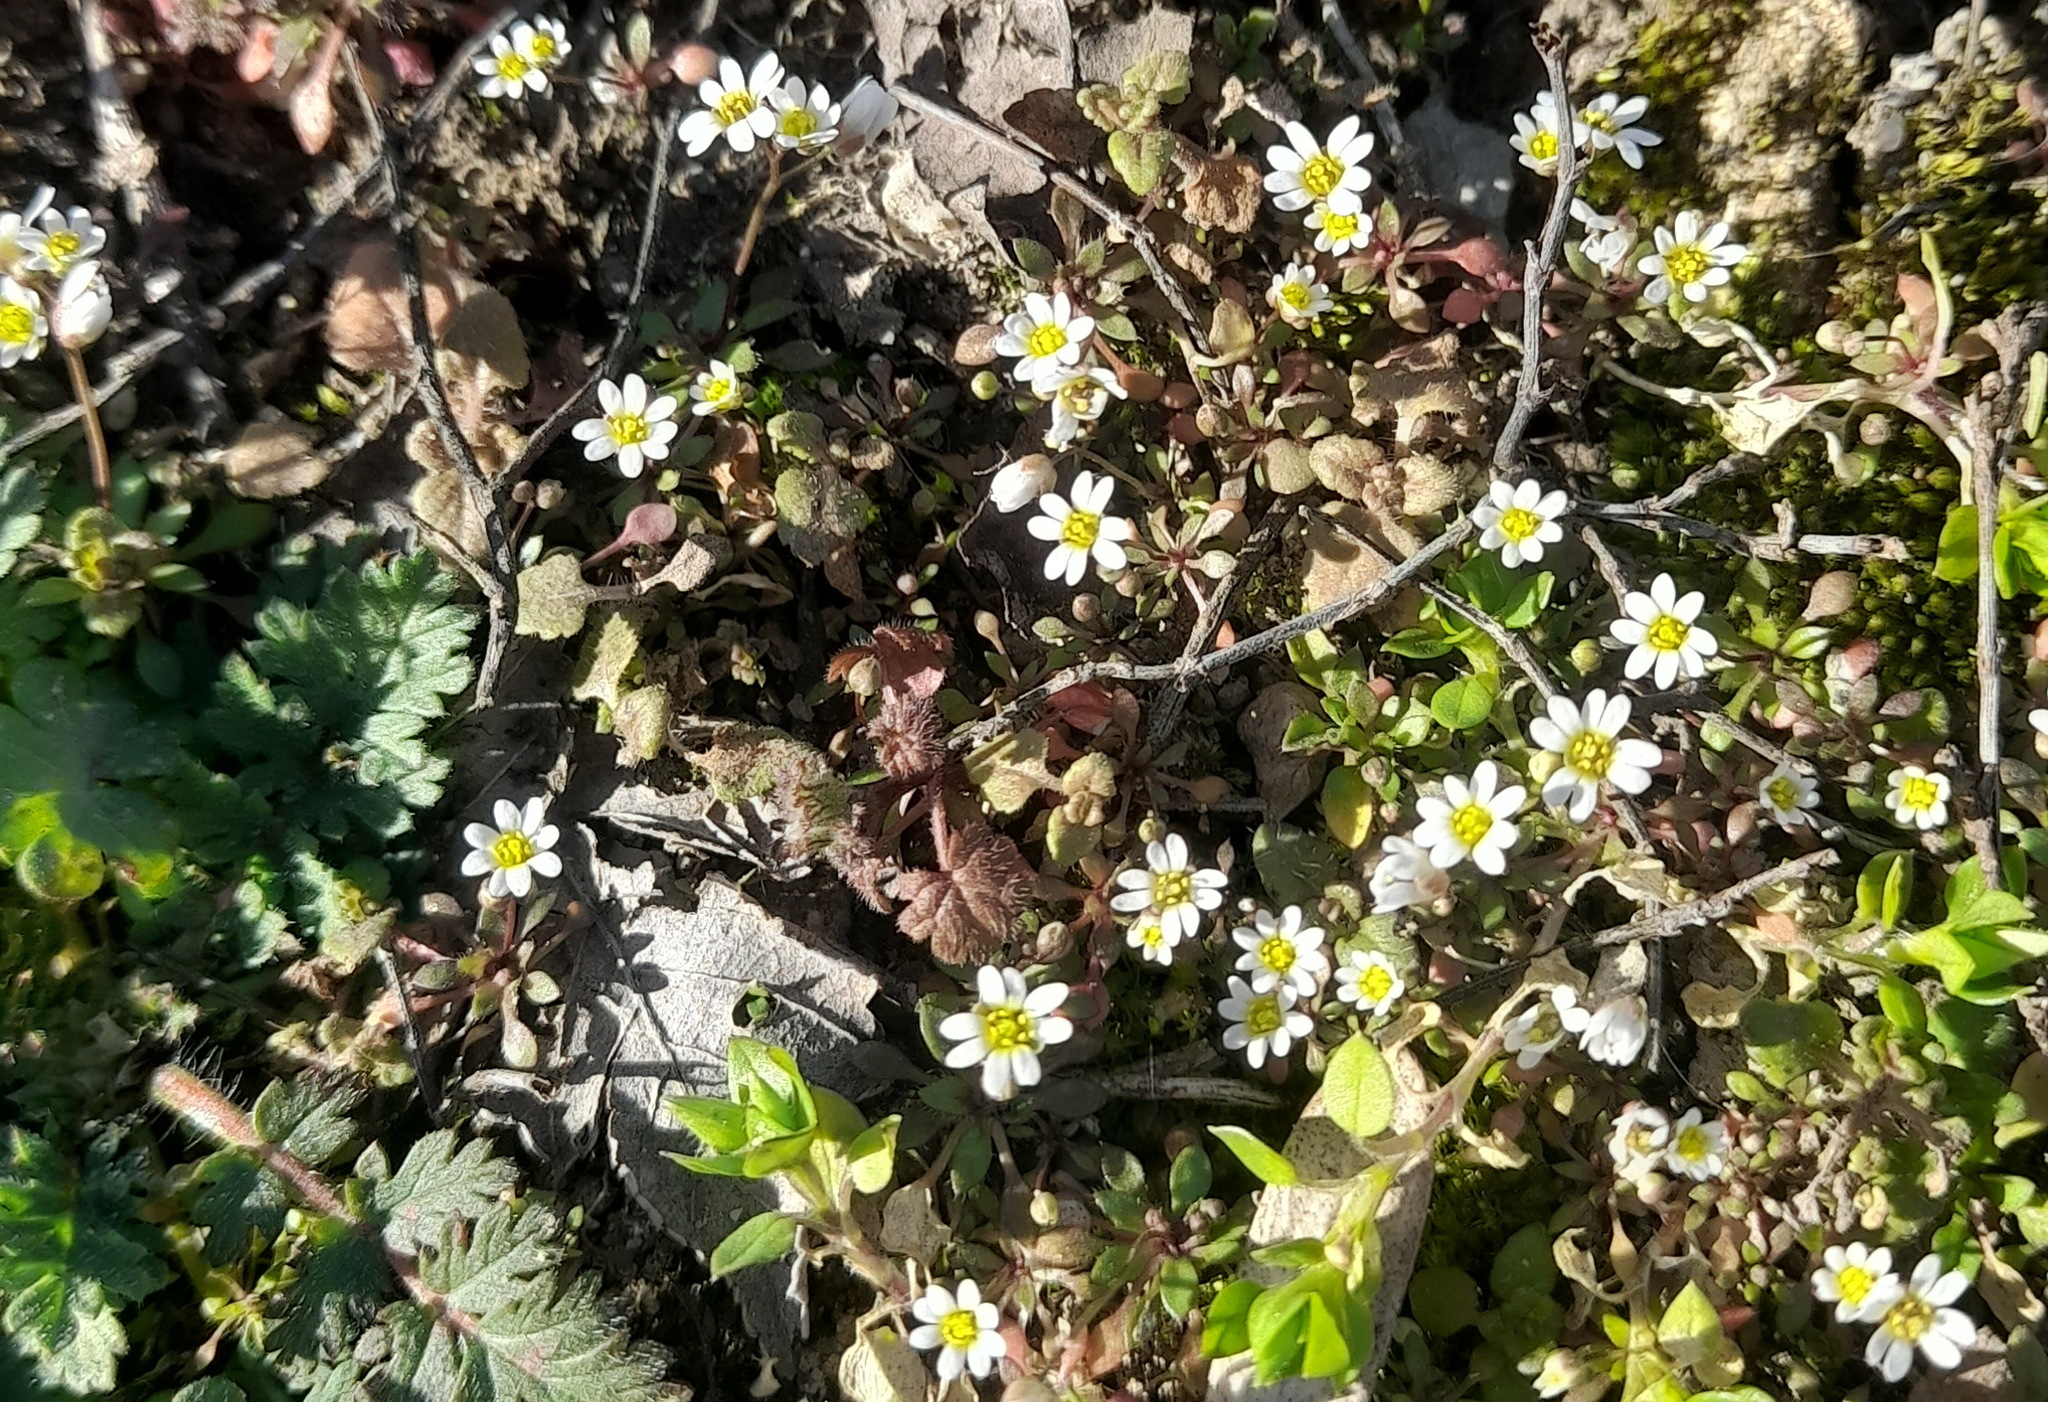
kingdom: Plantae
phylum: Tracheophyta
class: Magnoliopsida
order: Brassicales
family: Brassicaceae
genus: Draba
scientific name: Draba verna
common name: Spring draba
